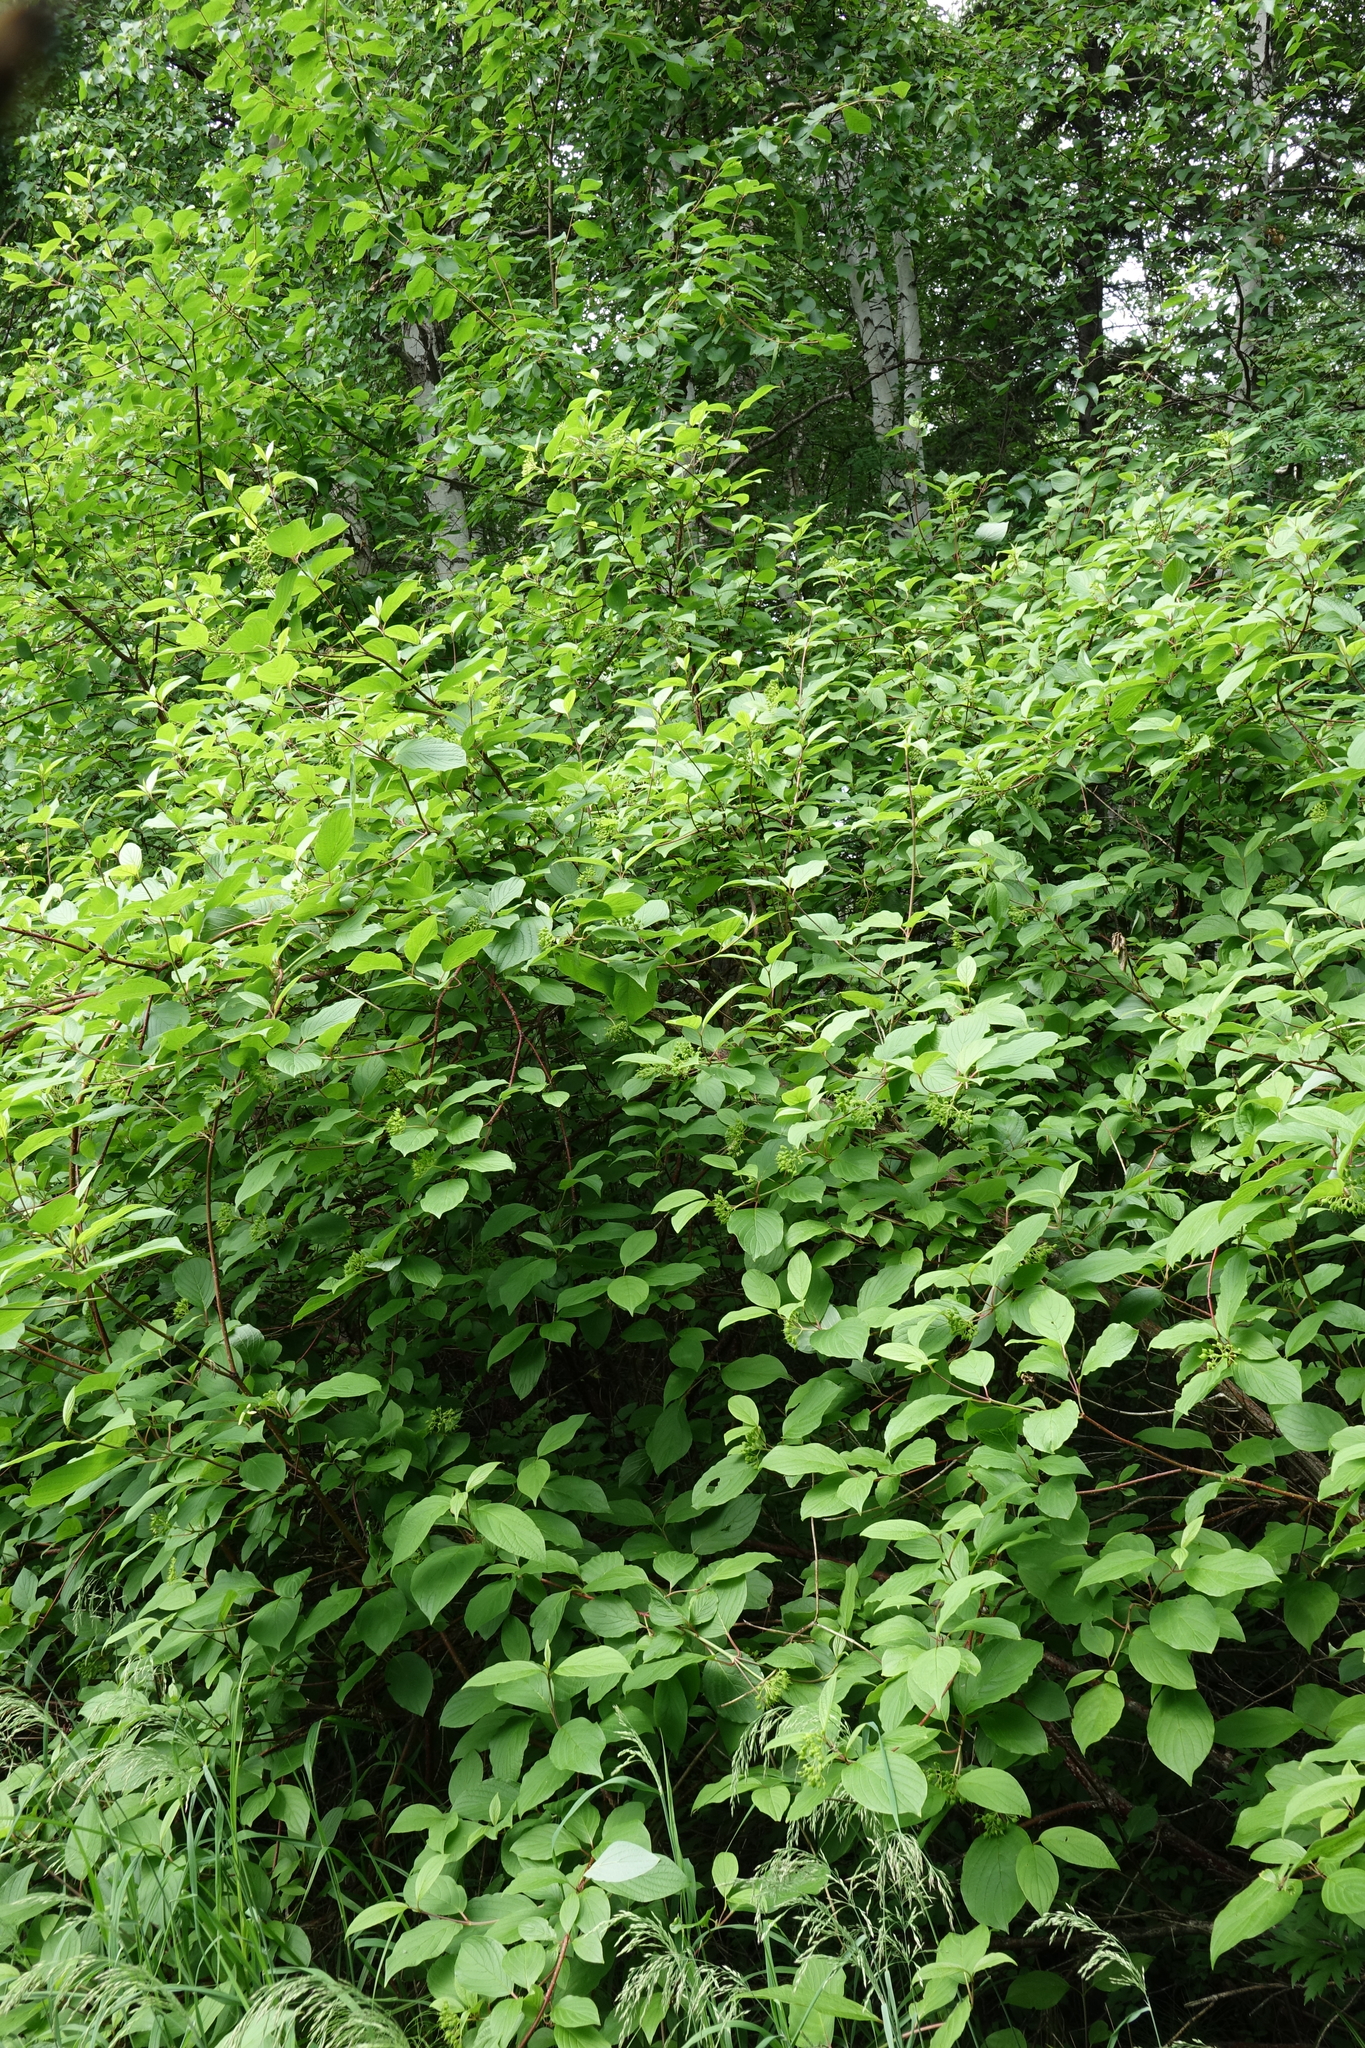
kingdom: Plantae
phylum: Tracheophyta
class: Magnoliopsida
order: Cornales
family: Cornaceae
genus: Cornus
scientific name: Cornus alba
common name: White dogwood
